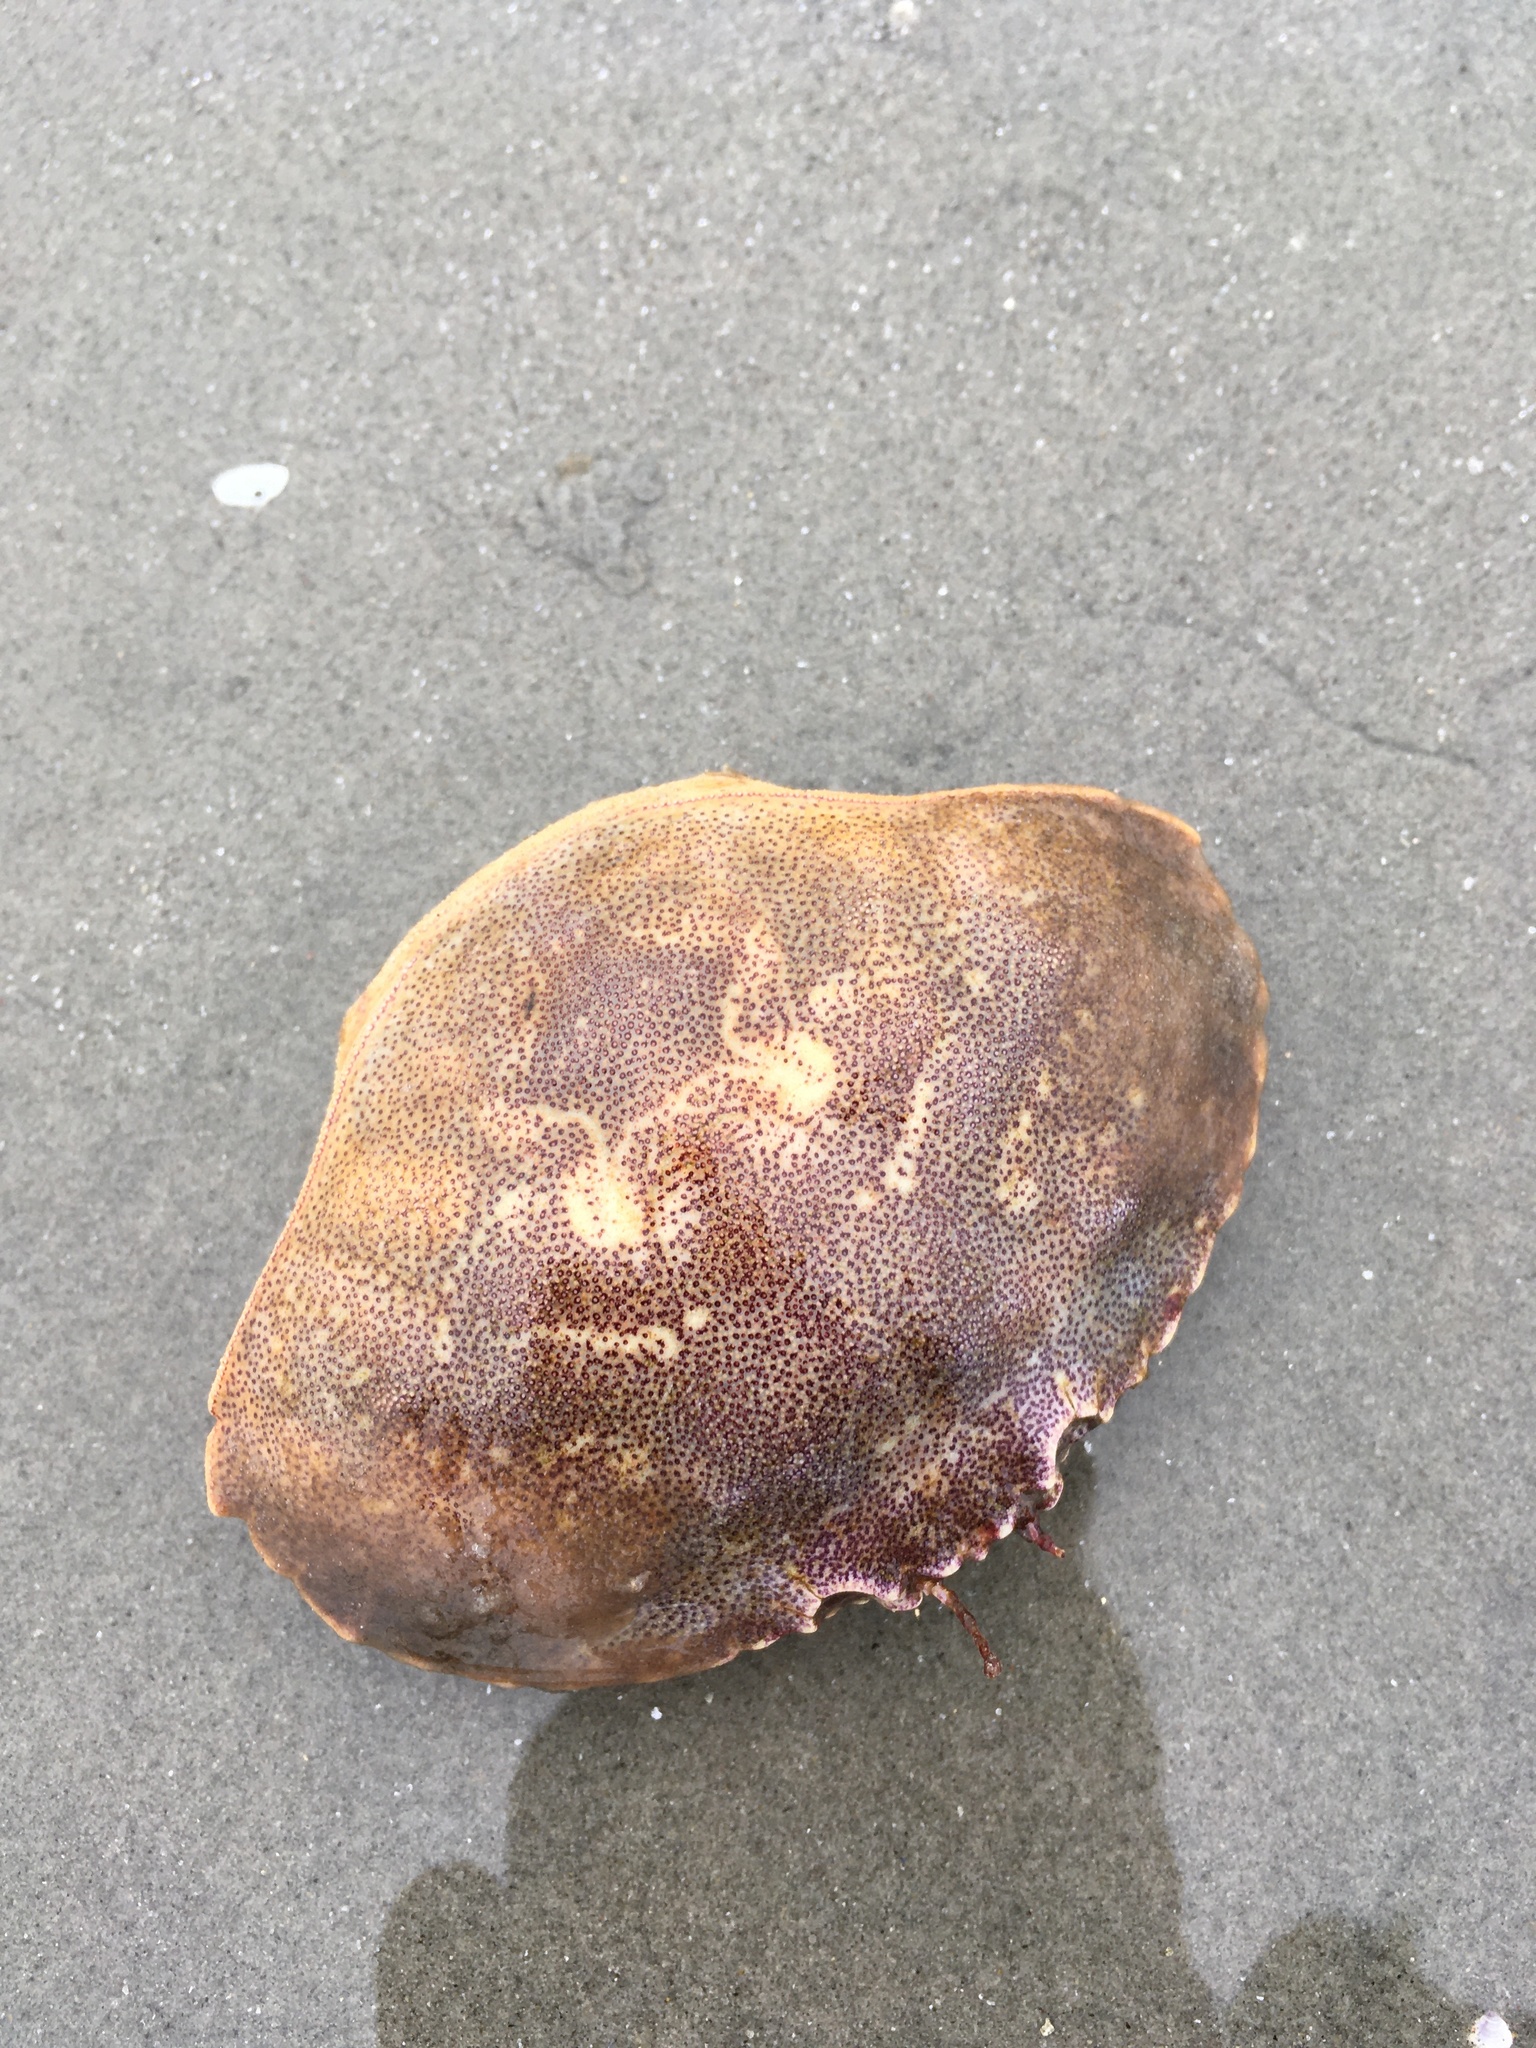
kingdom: Animalia
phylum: Arthropoda
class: Malacostraca
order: Decapoda
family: Cancridae
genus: Cancer
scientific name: Cancer borealis
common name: Jonah crab
